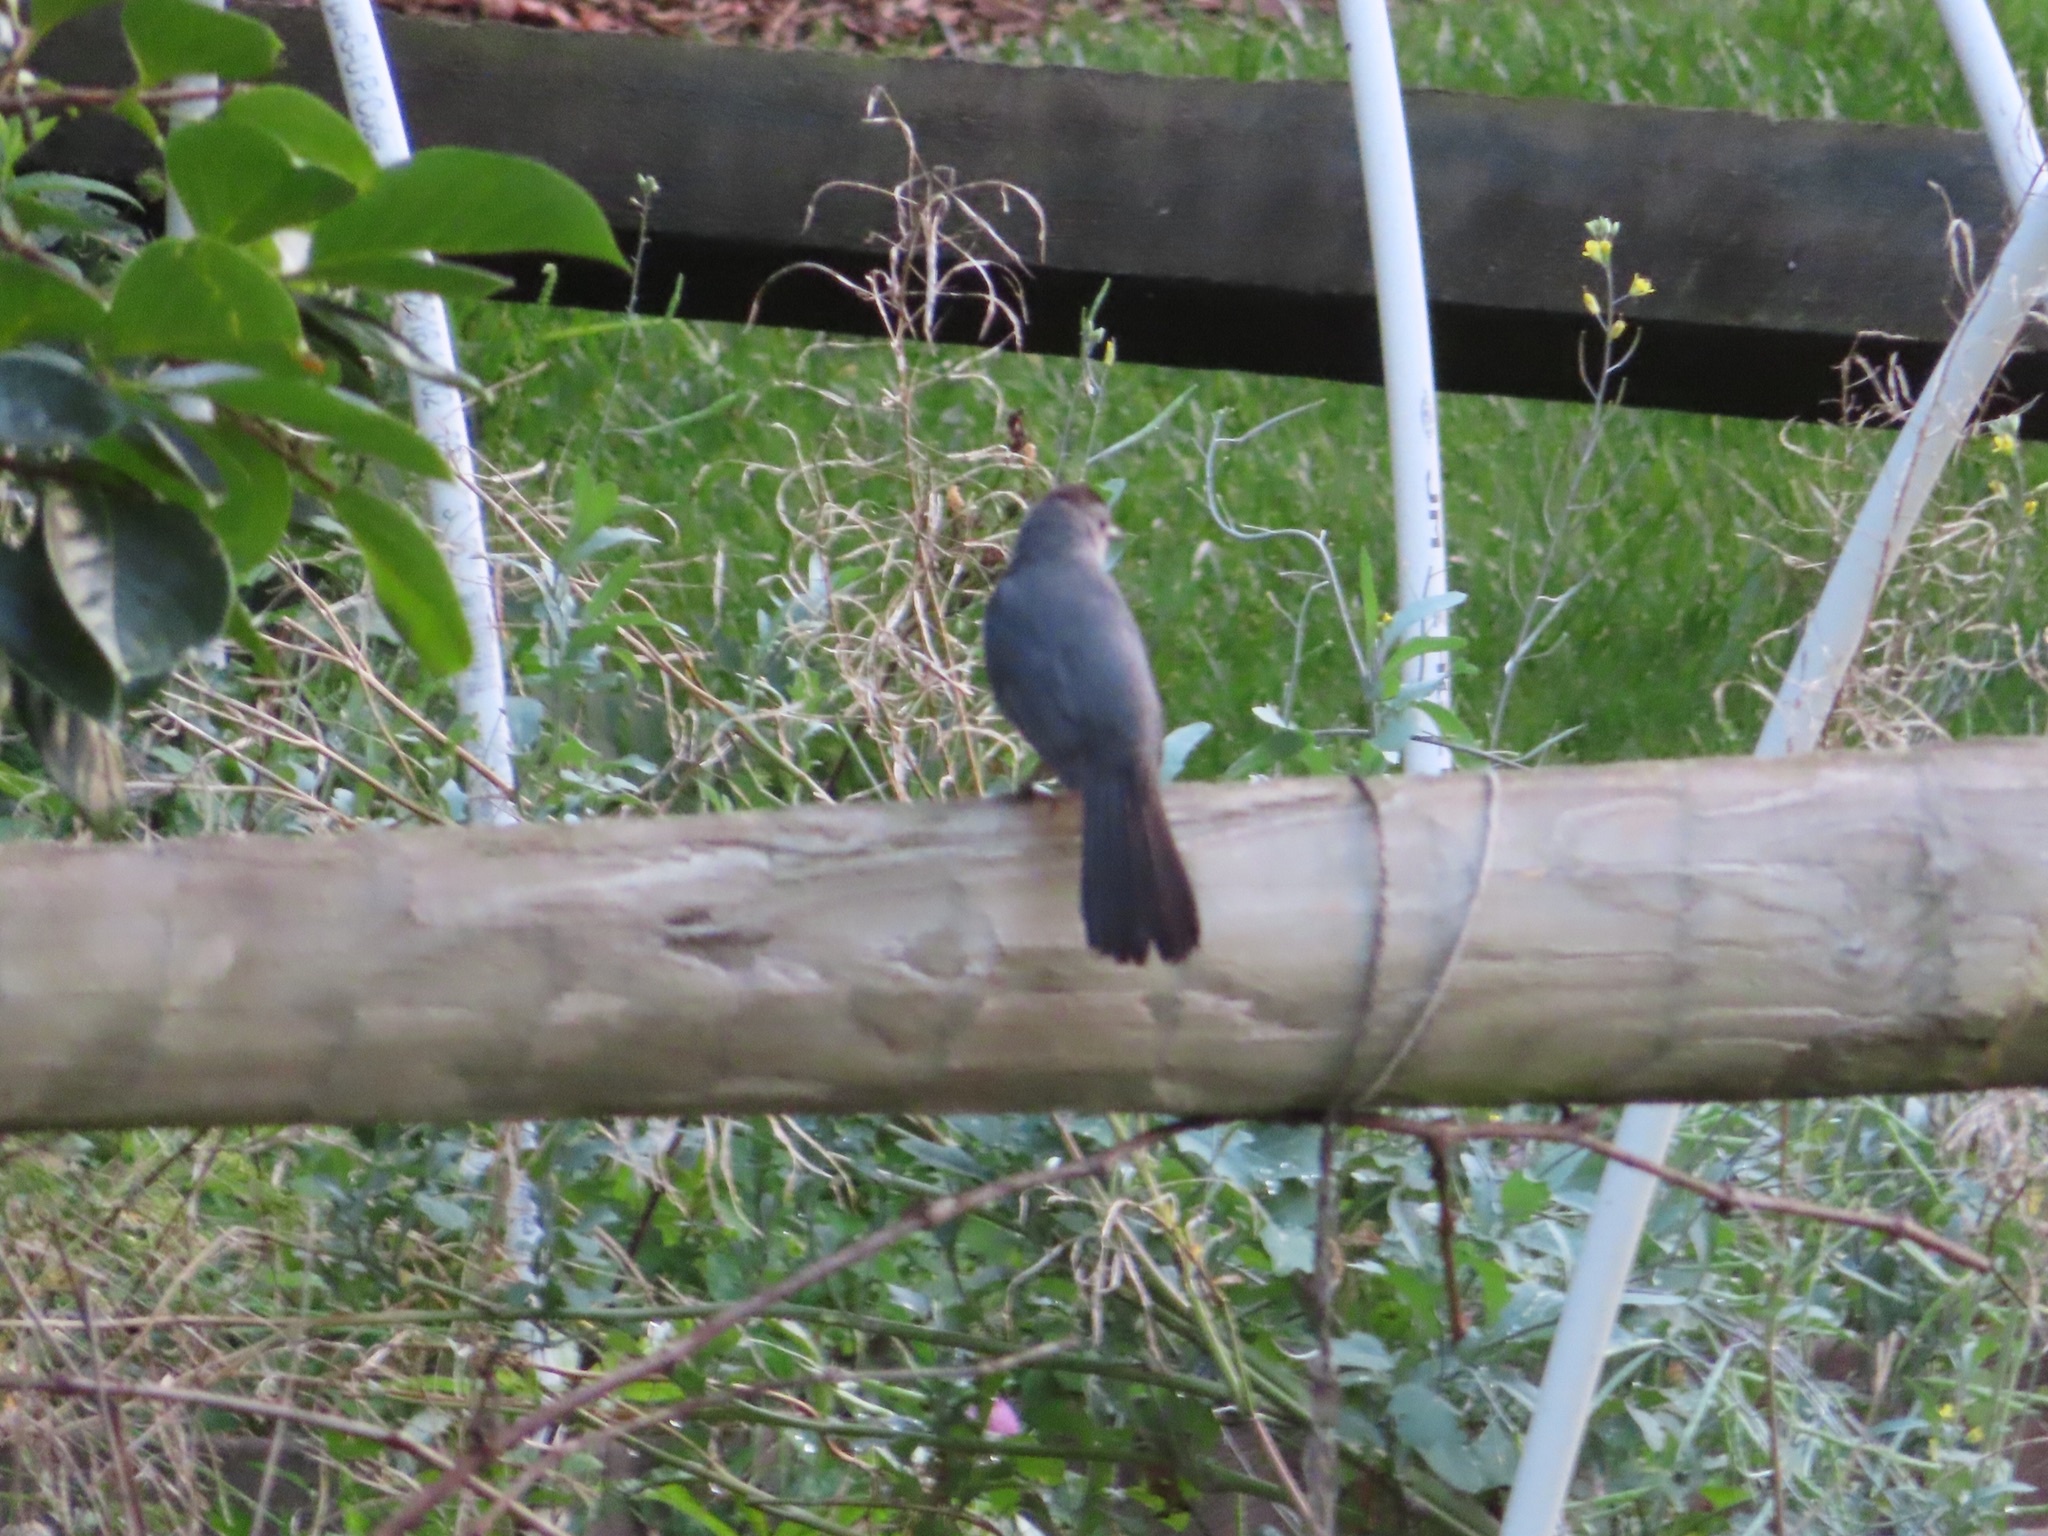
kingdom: Animalia
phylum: Chordata
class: Aves
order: Passeriformes
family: Mimidae
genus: Dumetella
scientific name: Dumetella carolinensis
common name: Gray catbird
